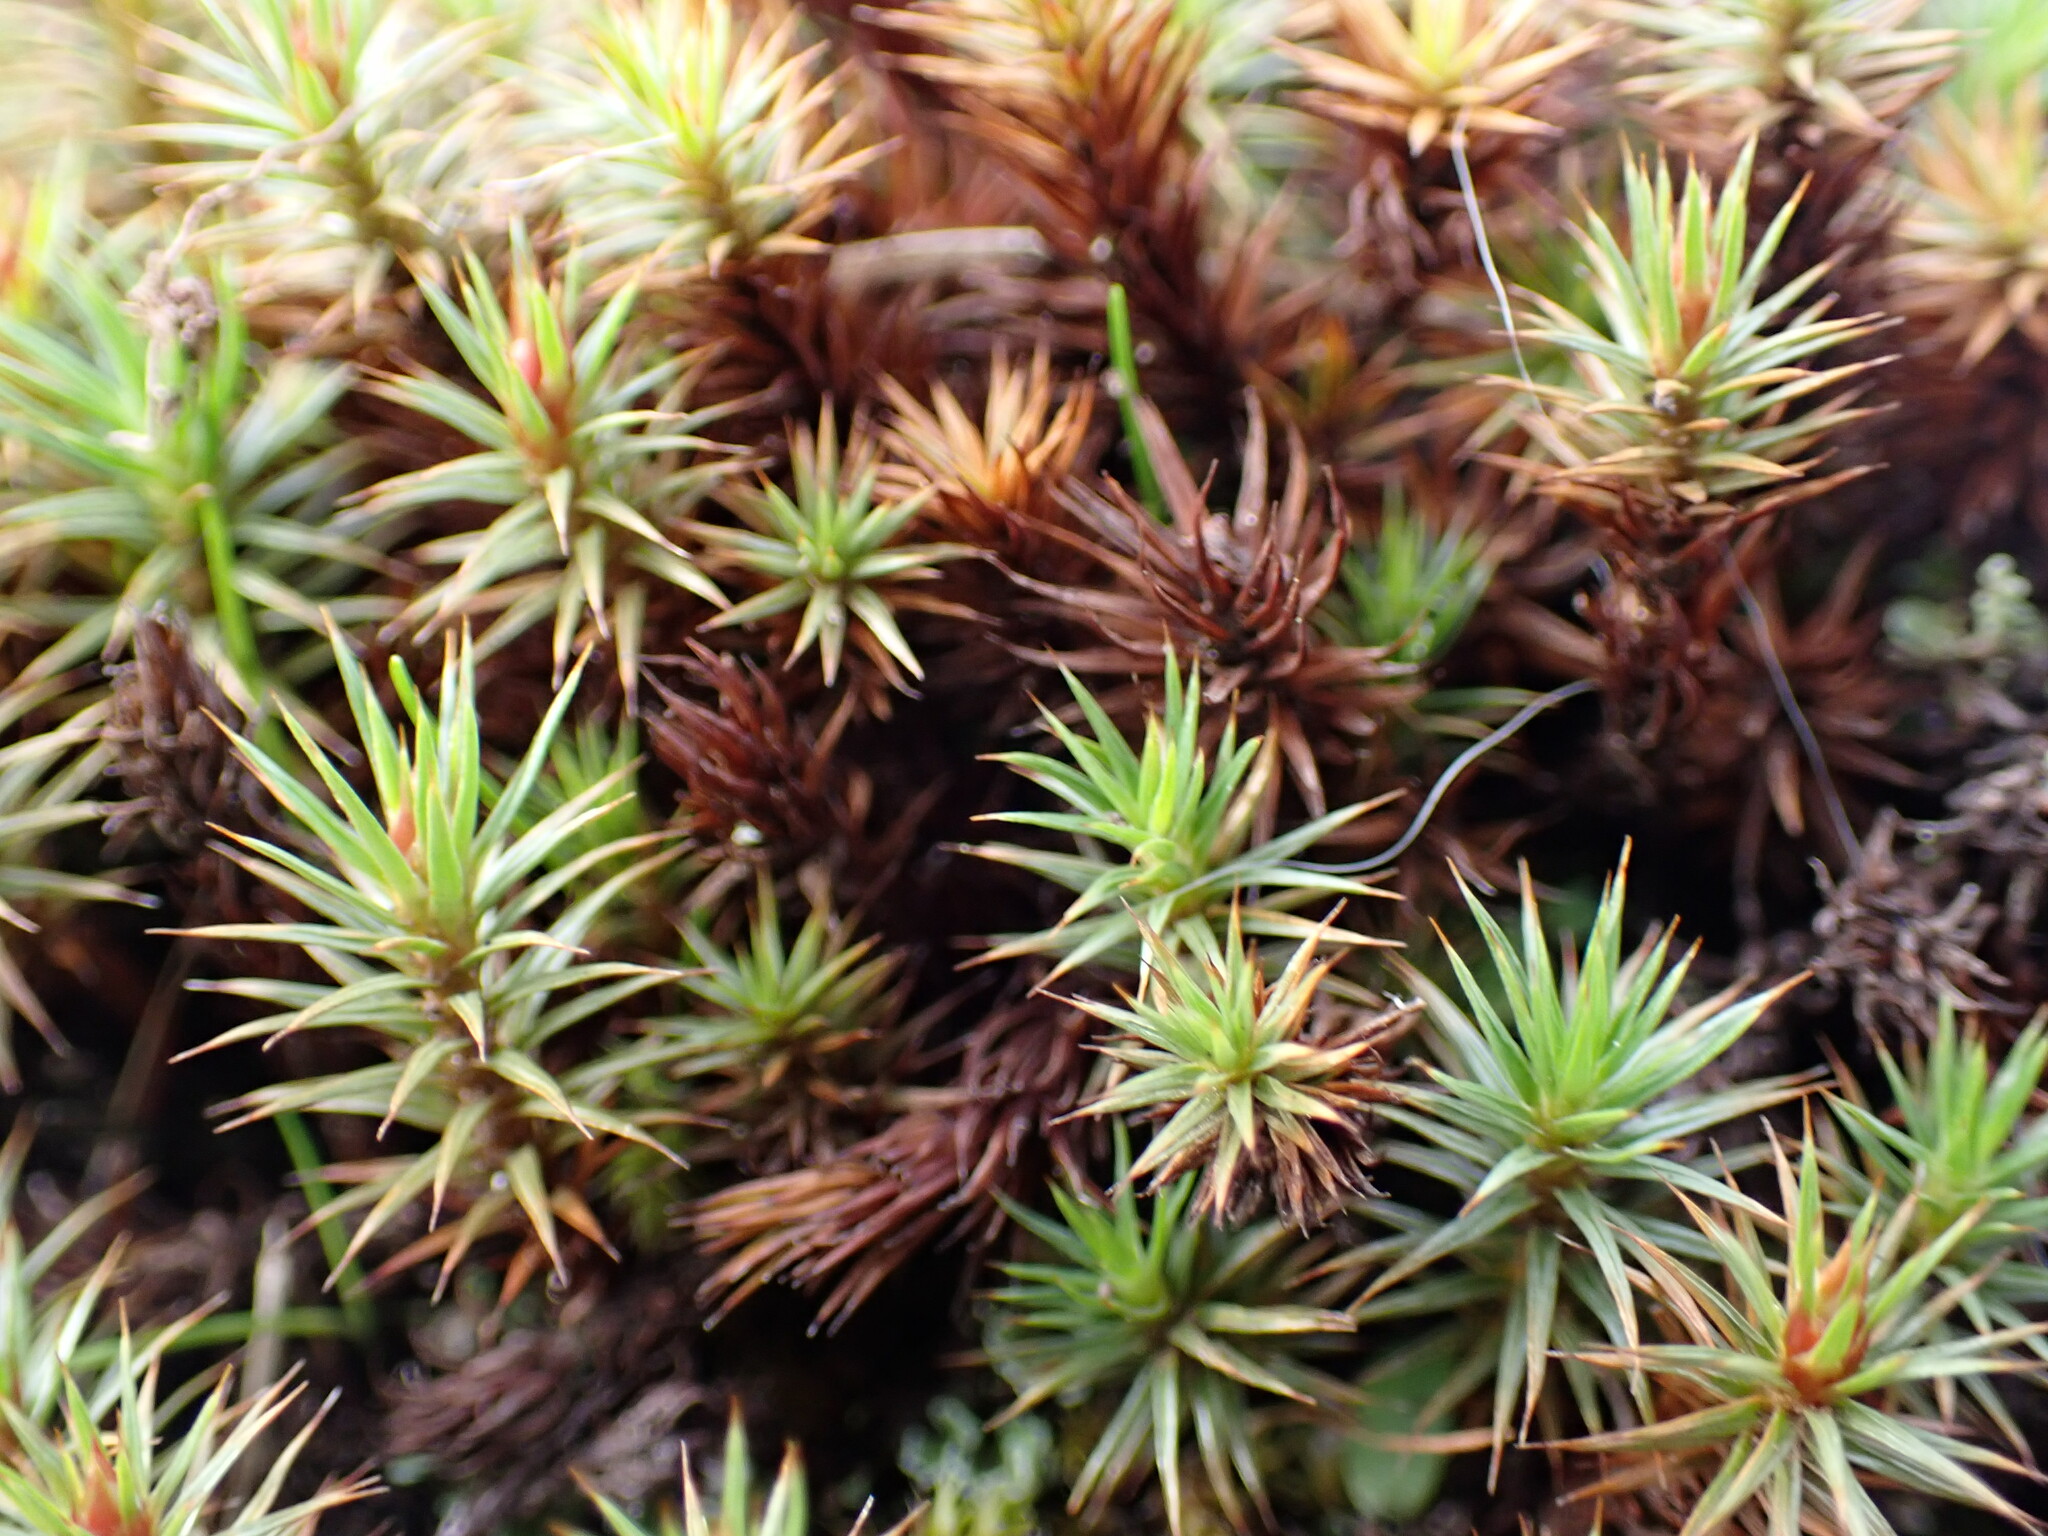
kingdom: Plantae
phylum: Bryophyta
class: Polytrichopsida
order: Polytrichales
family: Polytrichaceae
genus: Polytrichum
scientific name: Polytrichum juniperinum
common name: Juniper haircap moss
